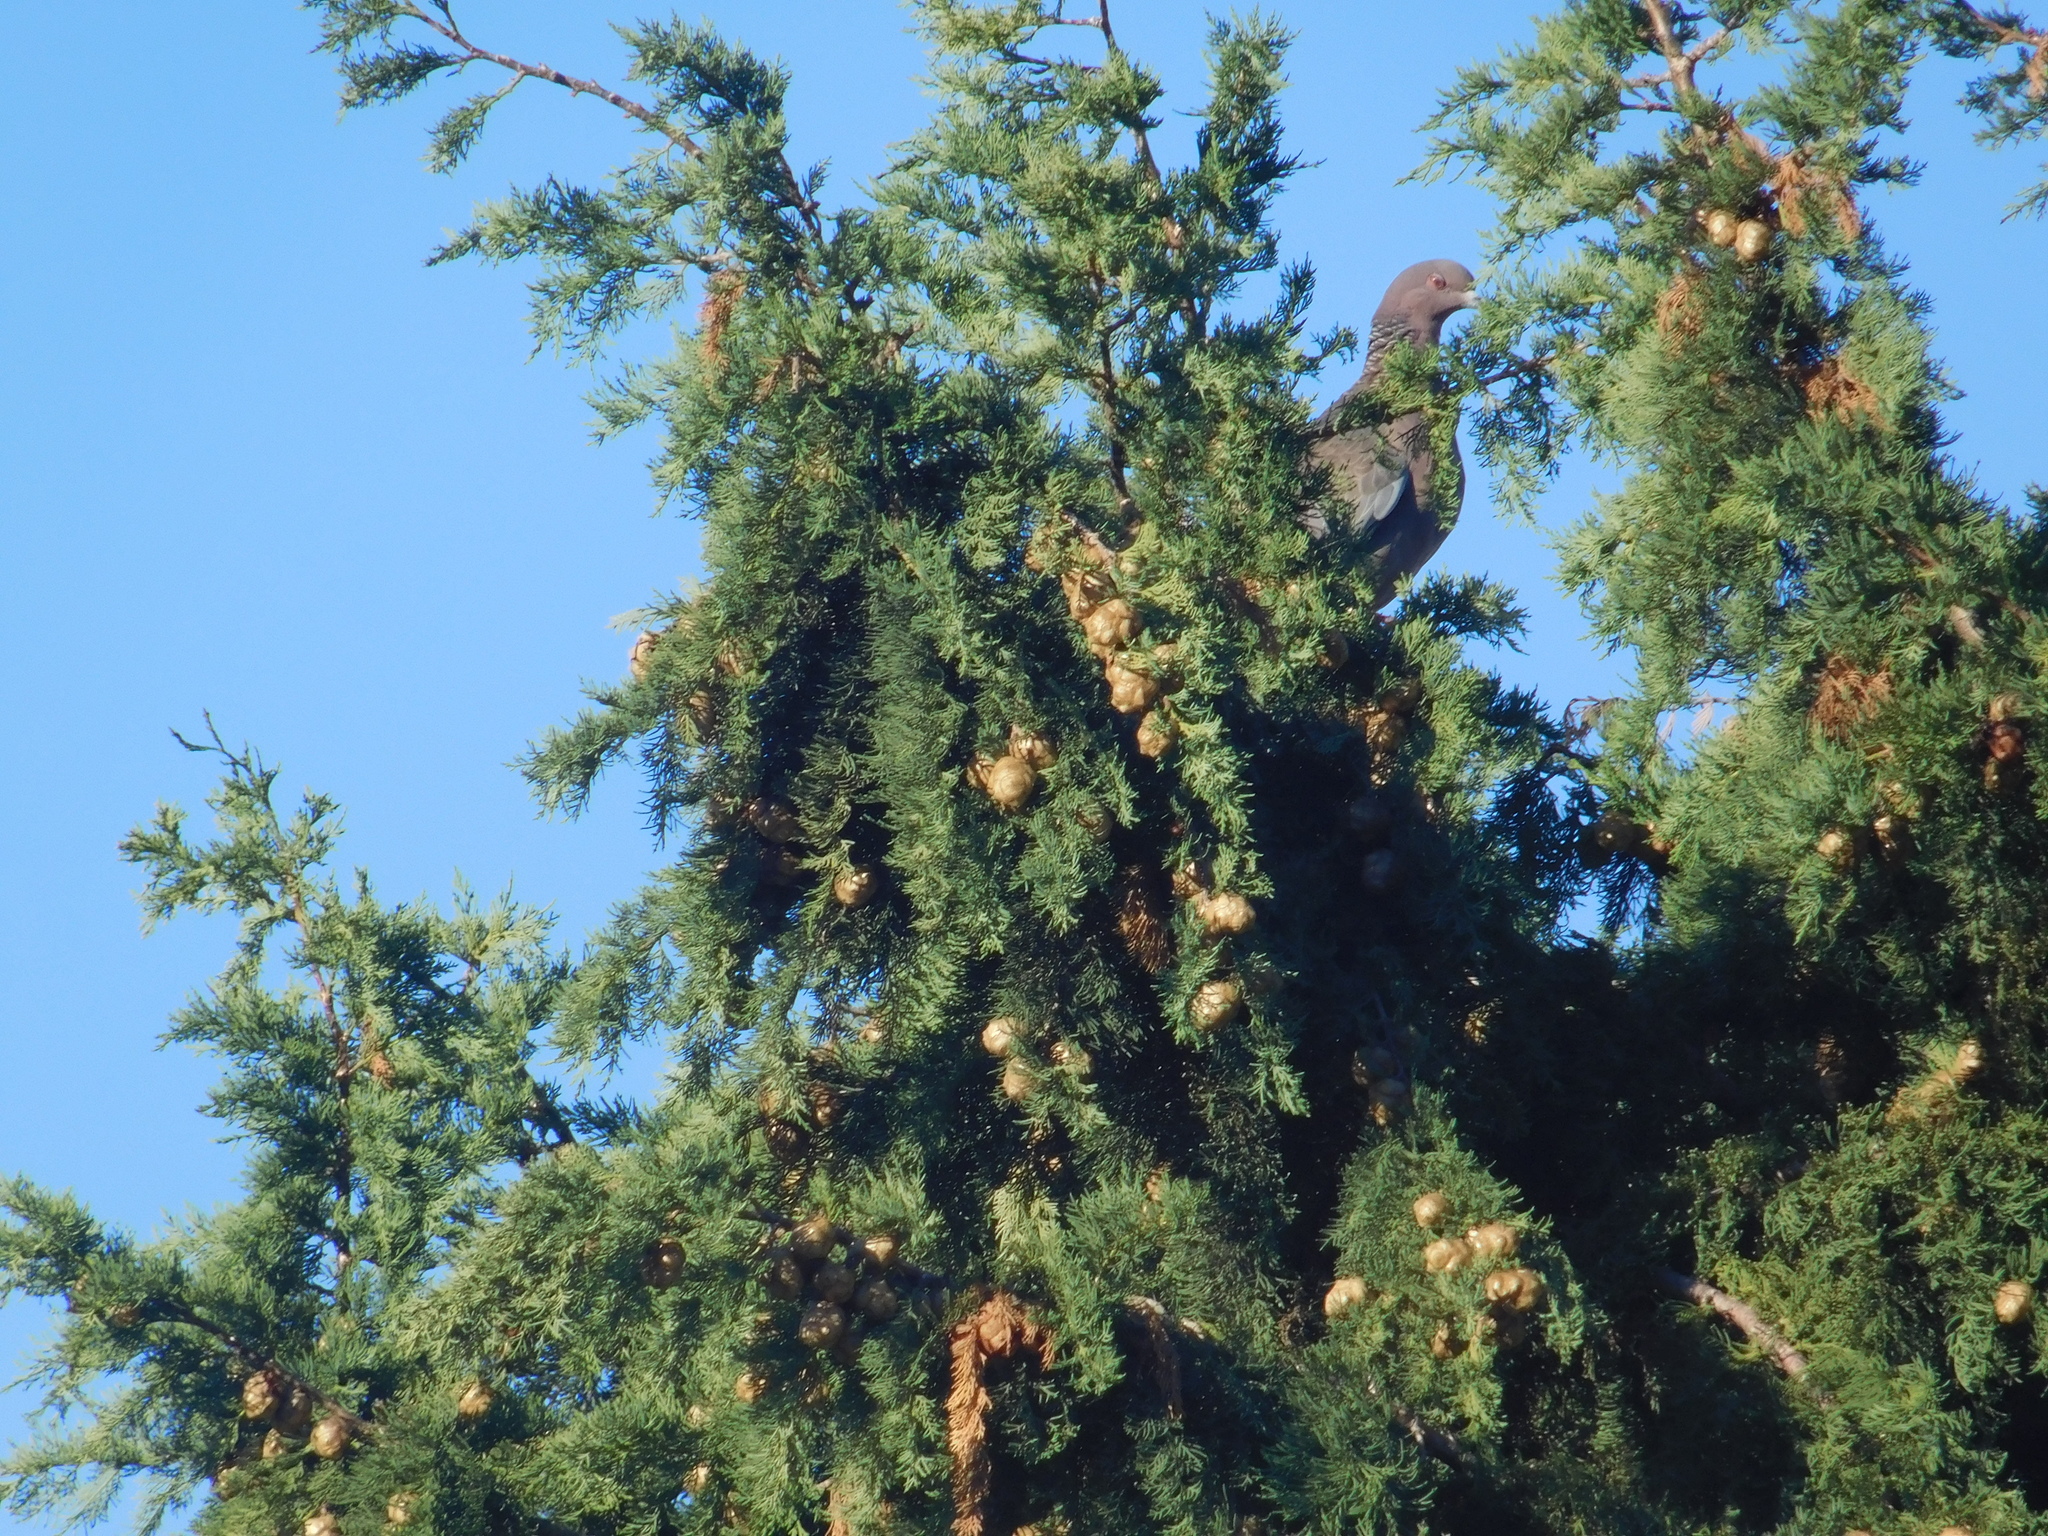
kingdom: Animalia
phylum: Chordata
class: Aves
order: Columbiformes
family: Columbidae
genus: Patagioenas
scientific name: Patagioenas picazuro
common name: Picazuro pigeon
